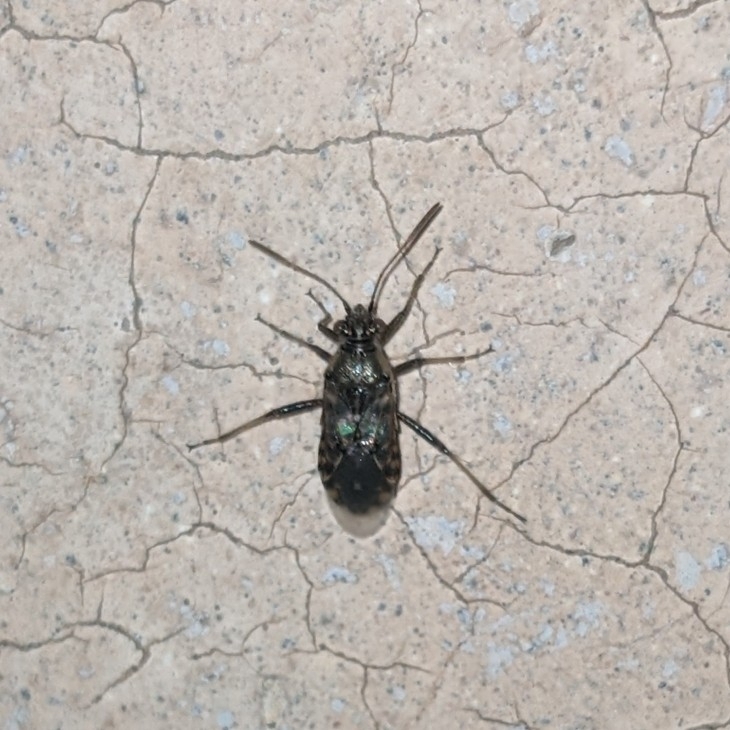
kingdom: Animalia
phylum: Arthropoda
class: Insecta
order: Hemiptera
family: Rhopalidae
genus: Liorhyssus
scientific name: Liorhyssus hyalinus
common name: Scentless plant bug
